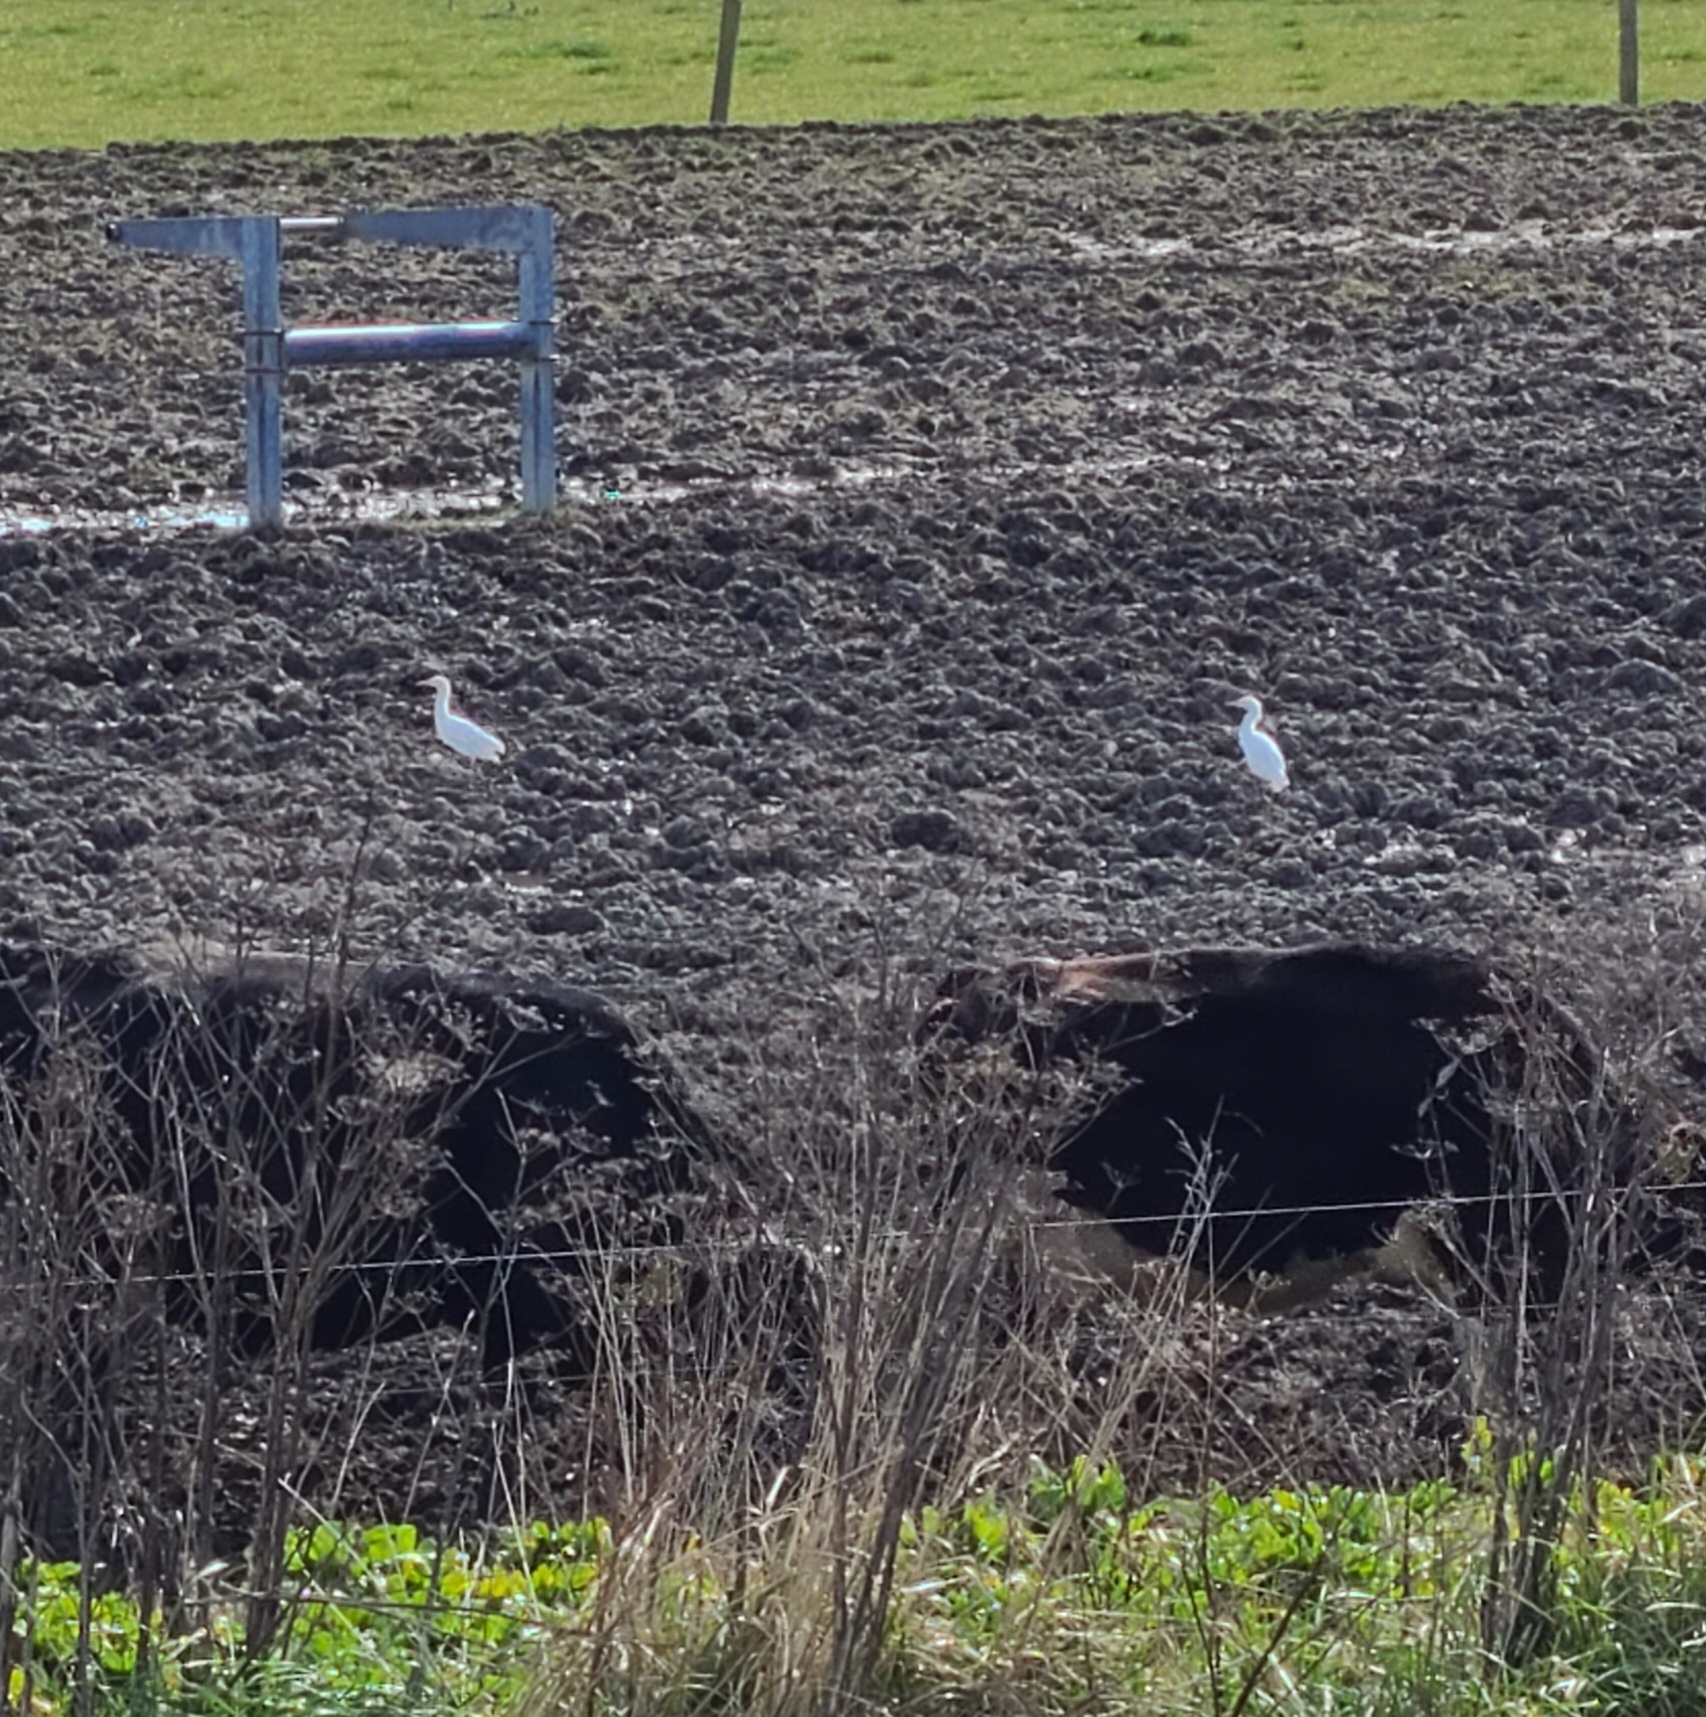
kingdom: Animalia
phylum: Chordata
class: Aves
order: Pelecaniformes
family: Ardeidae
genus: Bubulcus
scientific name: Bubulcus coromandus
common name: Eastern cattle egret
